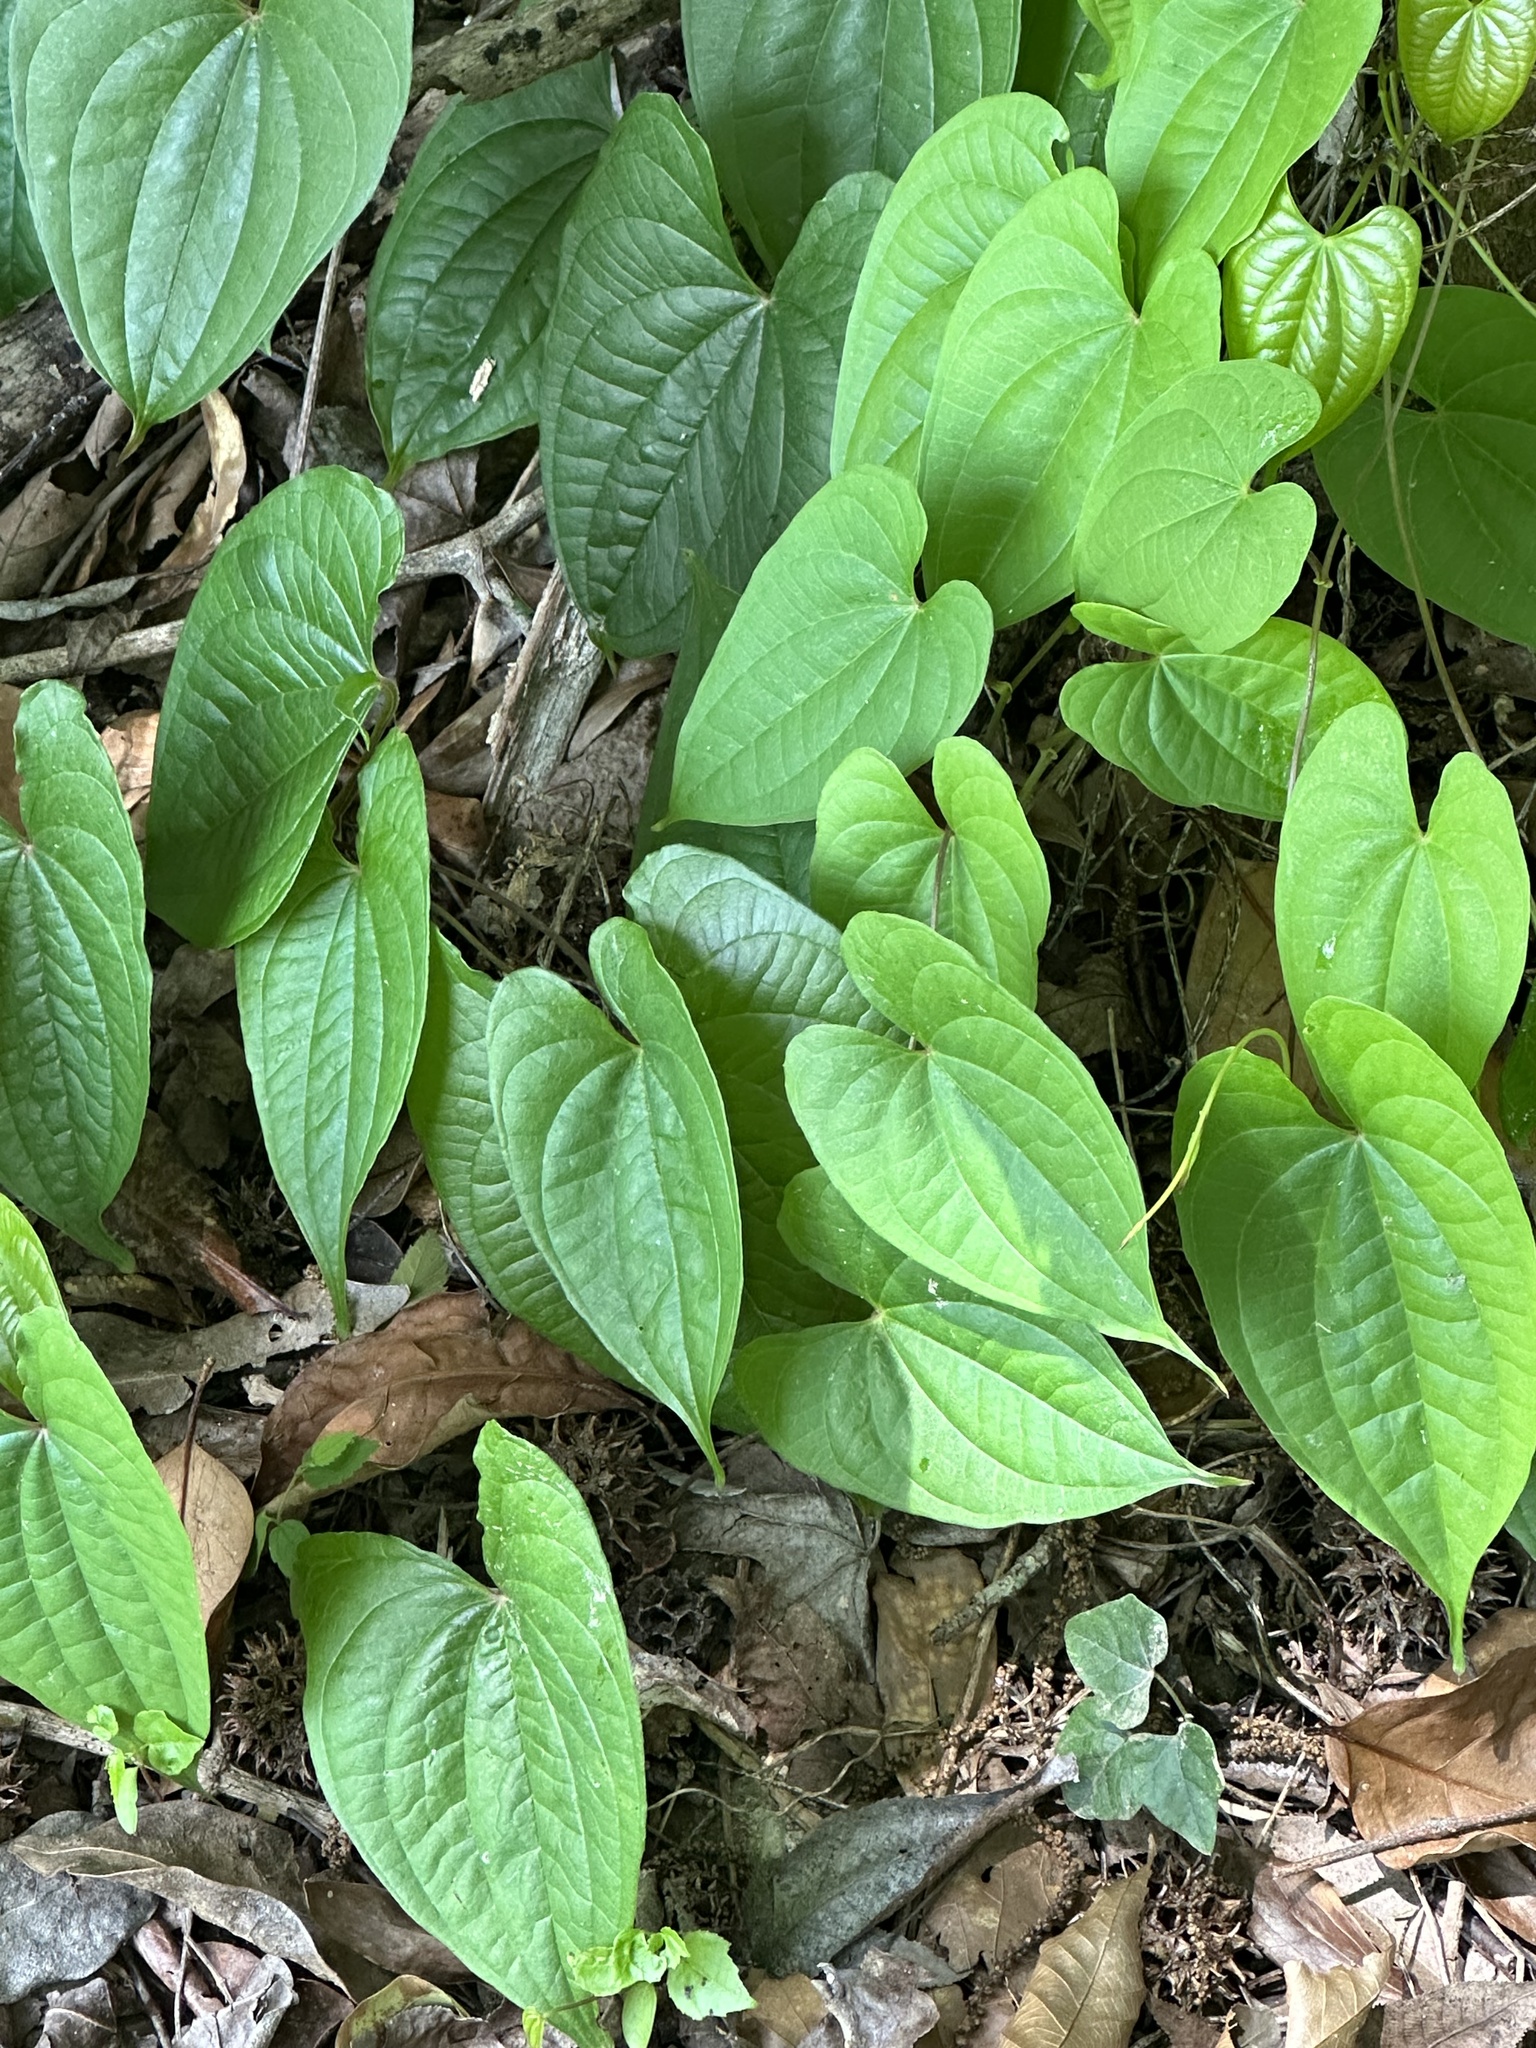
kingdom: Plantae
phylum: Tracheophyta
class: Liliopsida
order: Dioscoreales
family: Dioscoreaceae
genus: Dioscorea
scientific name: Dioscorea bulbifera
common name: Air yam
